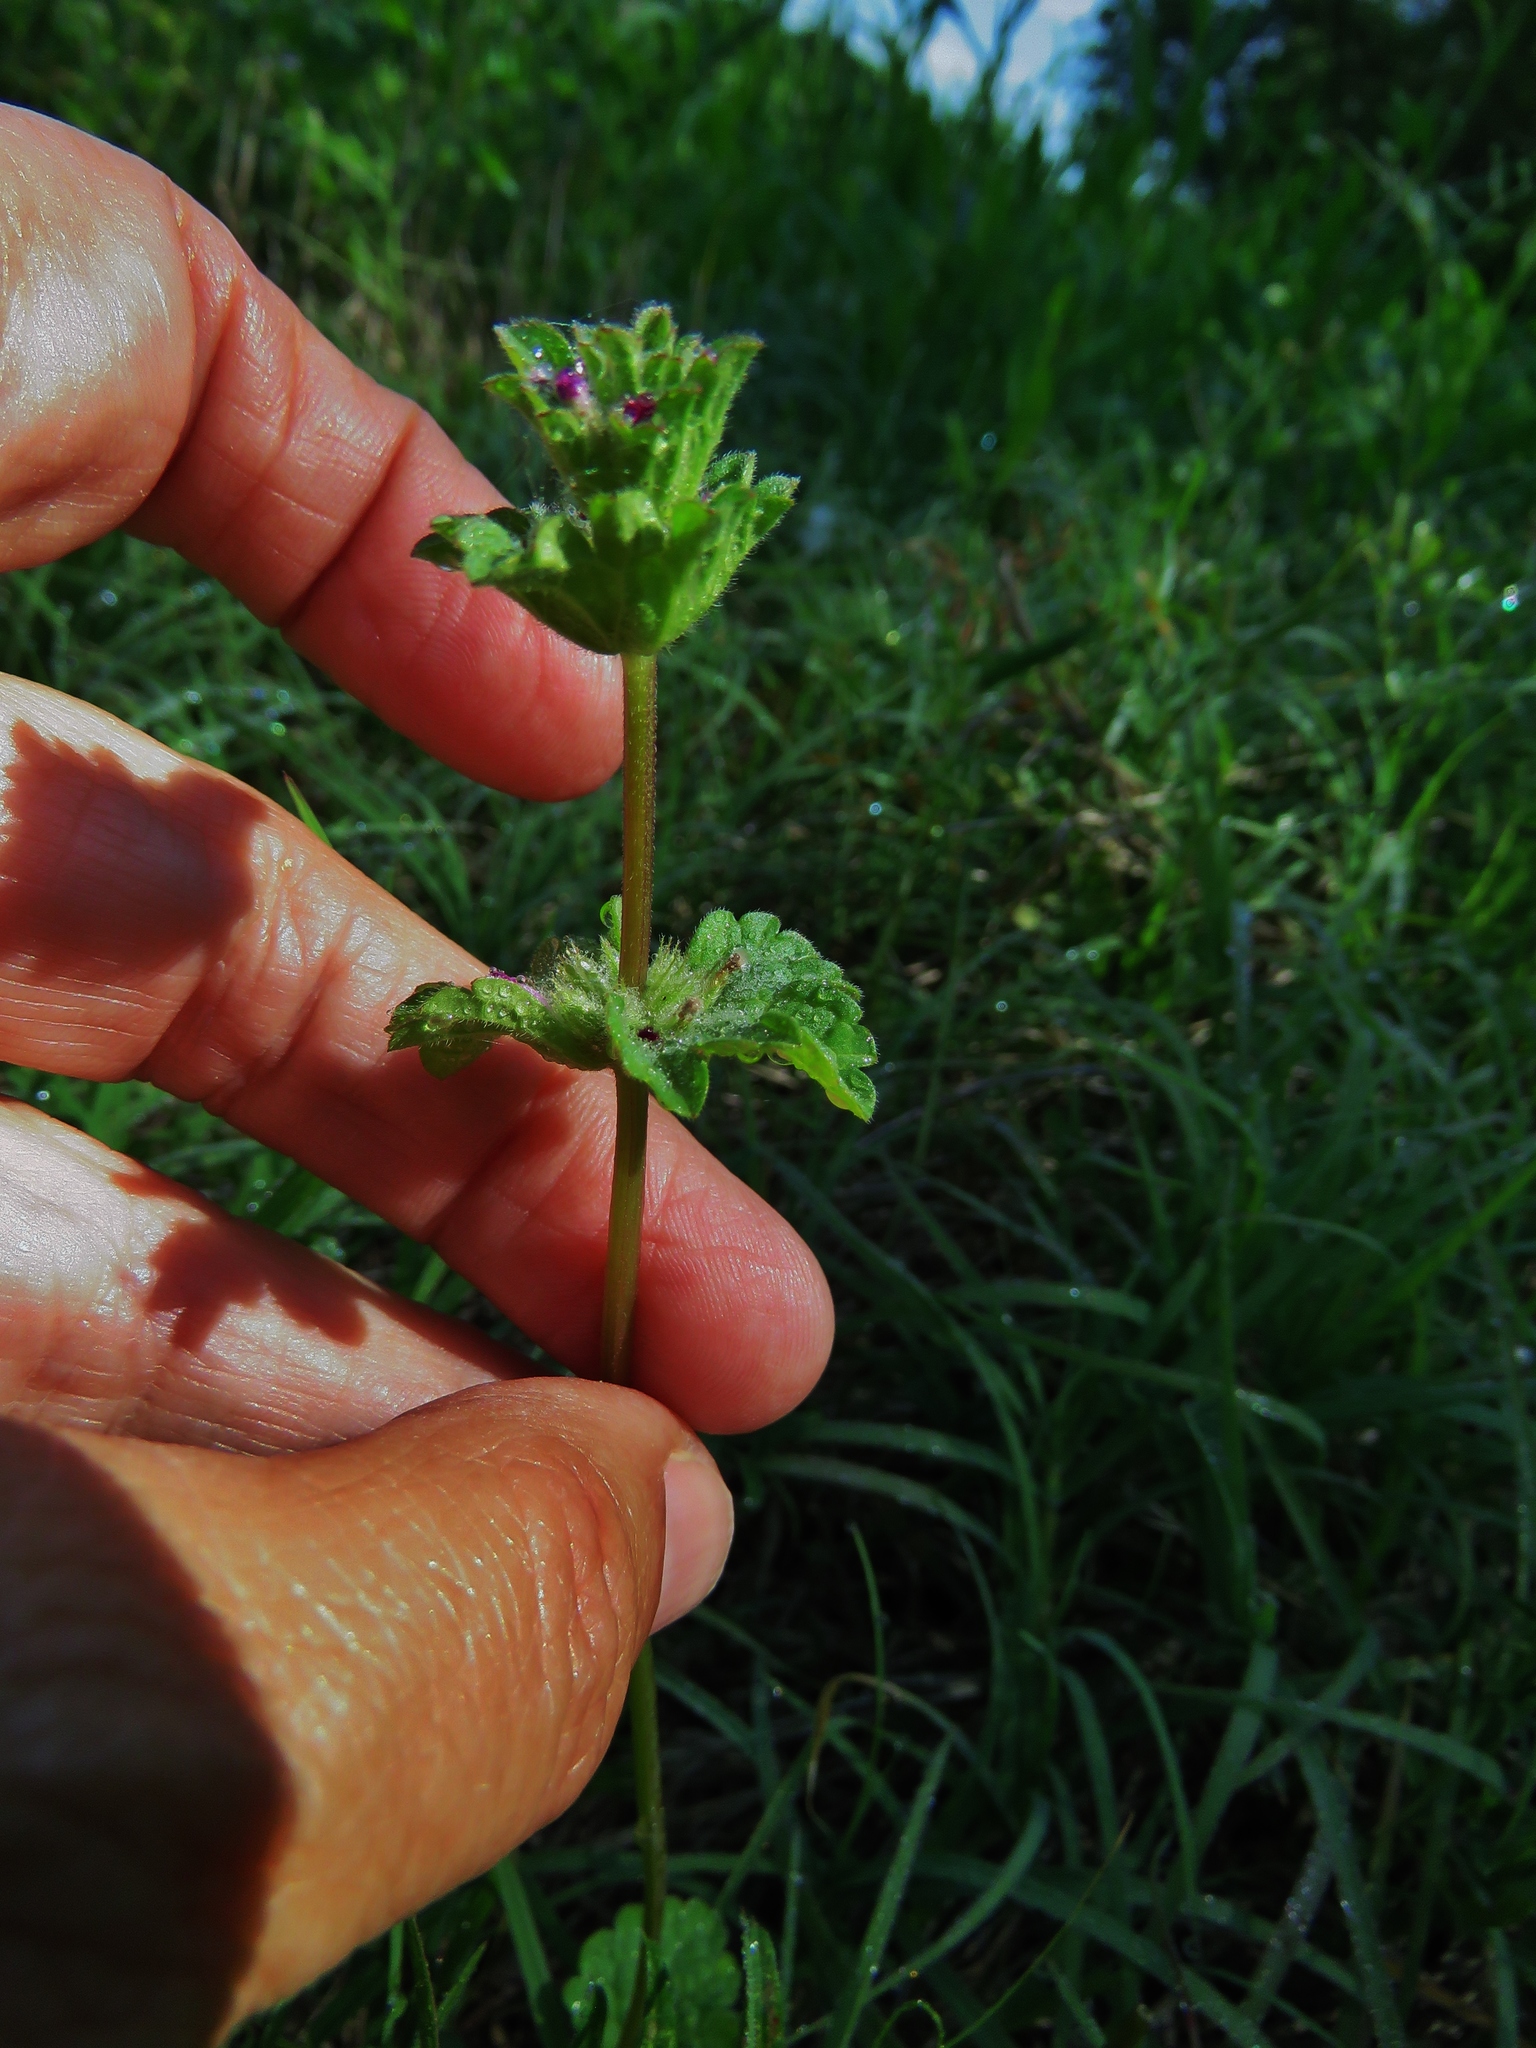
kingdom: Plantae
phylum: Tracheophyta
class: Magnoliopsida
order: Lamiales
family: Lamiaceae
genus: Lamium
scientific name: Lamium amplexicaule
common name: Henbit dead-nettle
